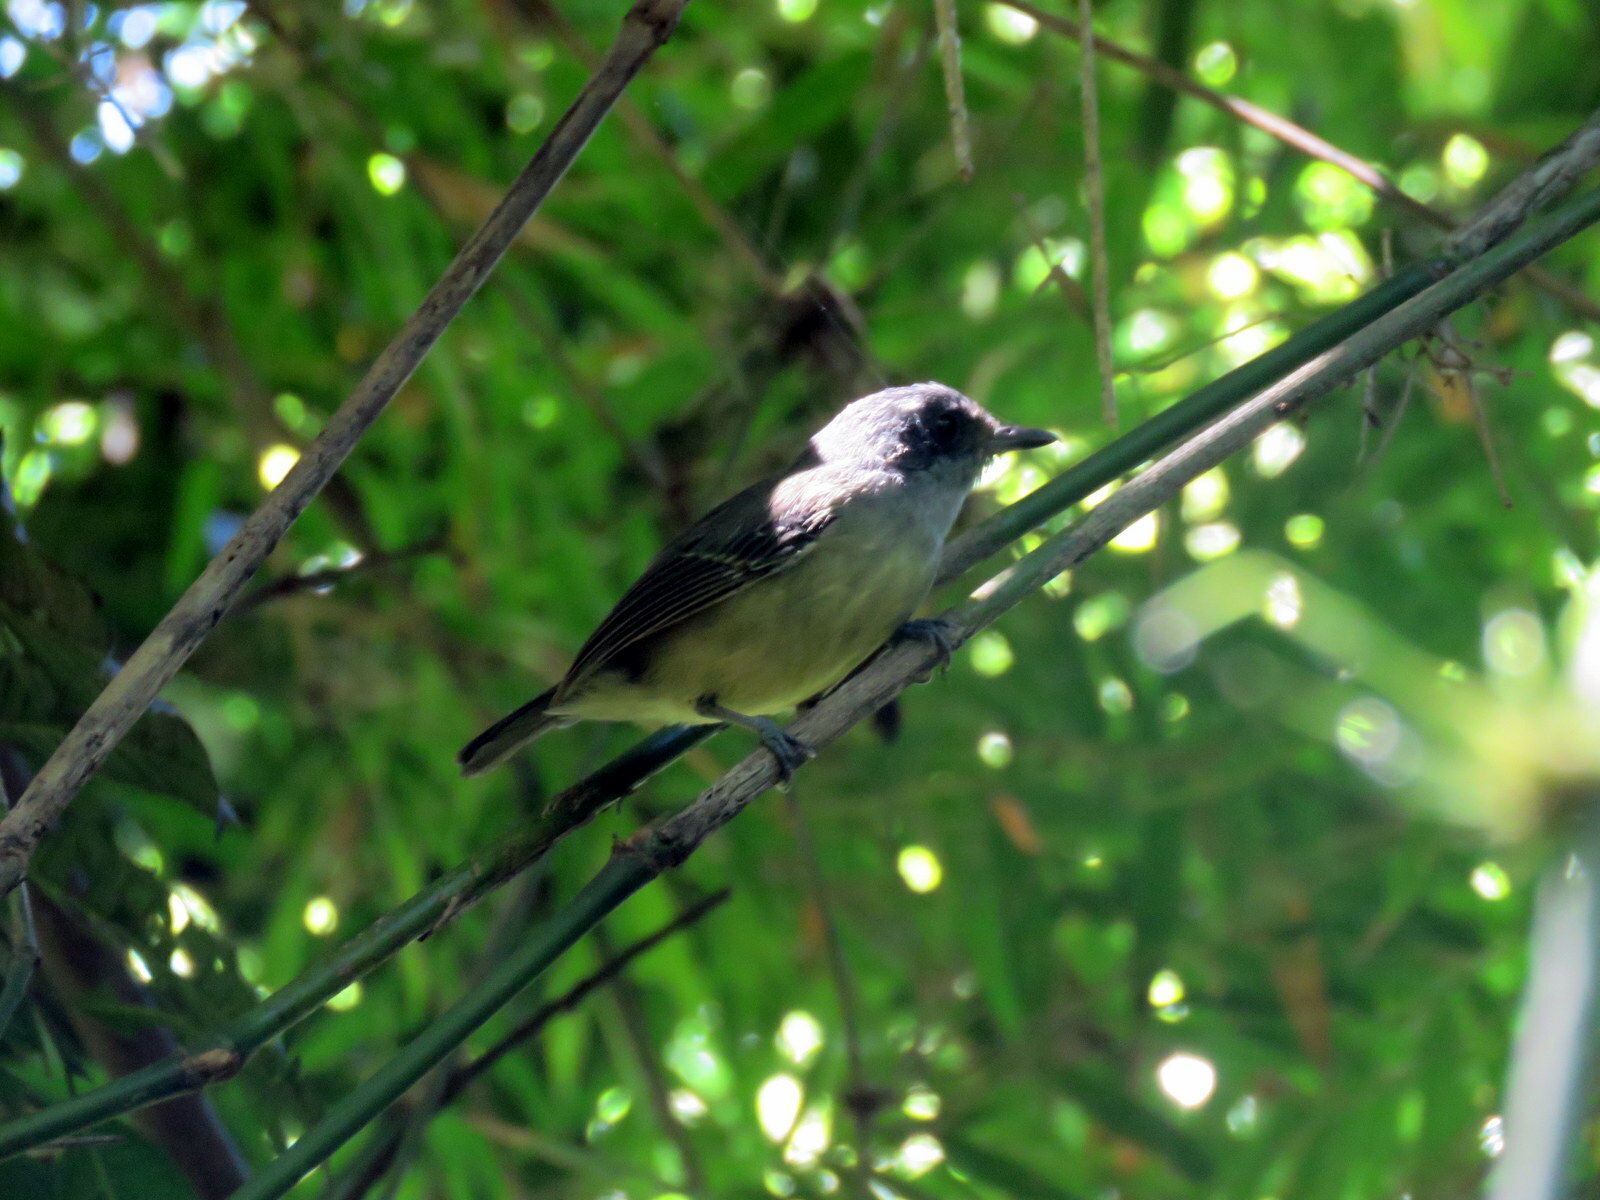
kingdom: Animalia
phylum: Chordata
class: Aves
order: Passeriformes
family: Thamnophilidae
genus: Dysithamnus
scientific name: Dysithamnus mentalis
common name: Plain antvireo
